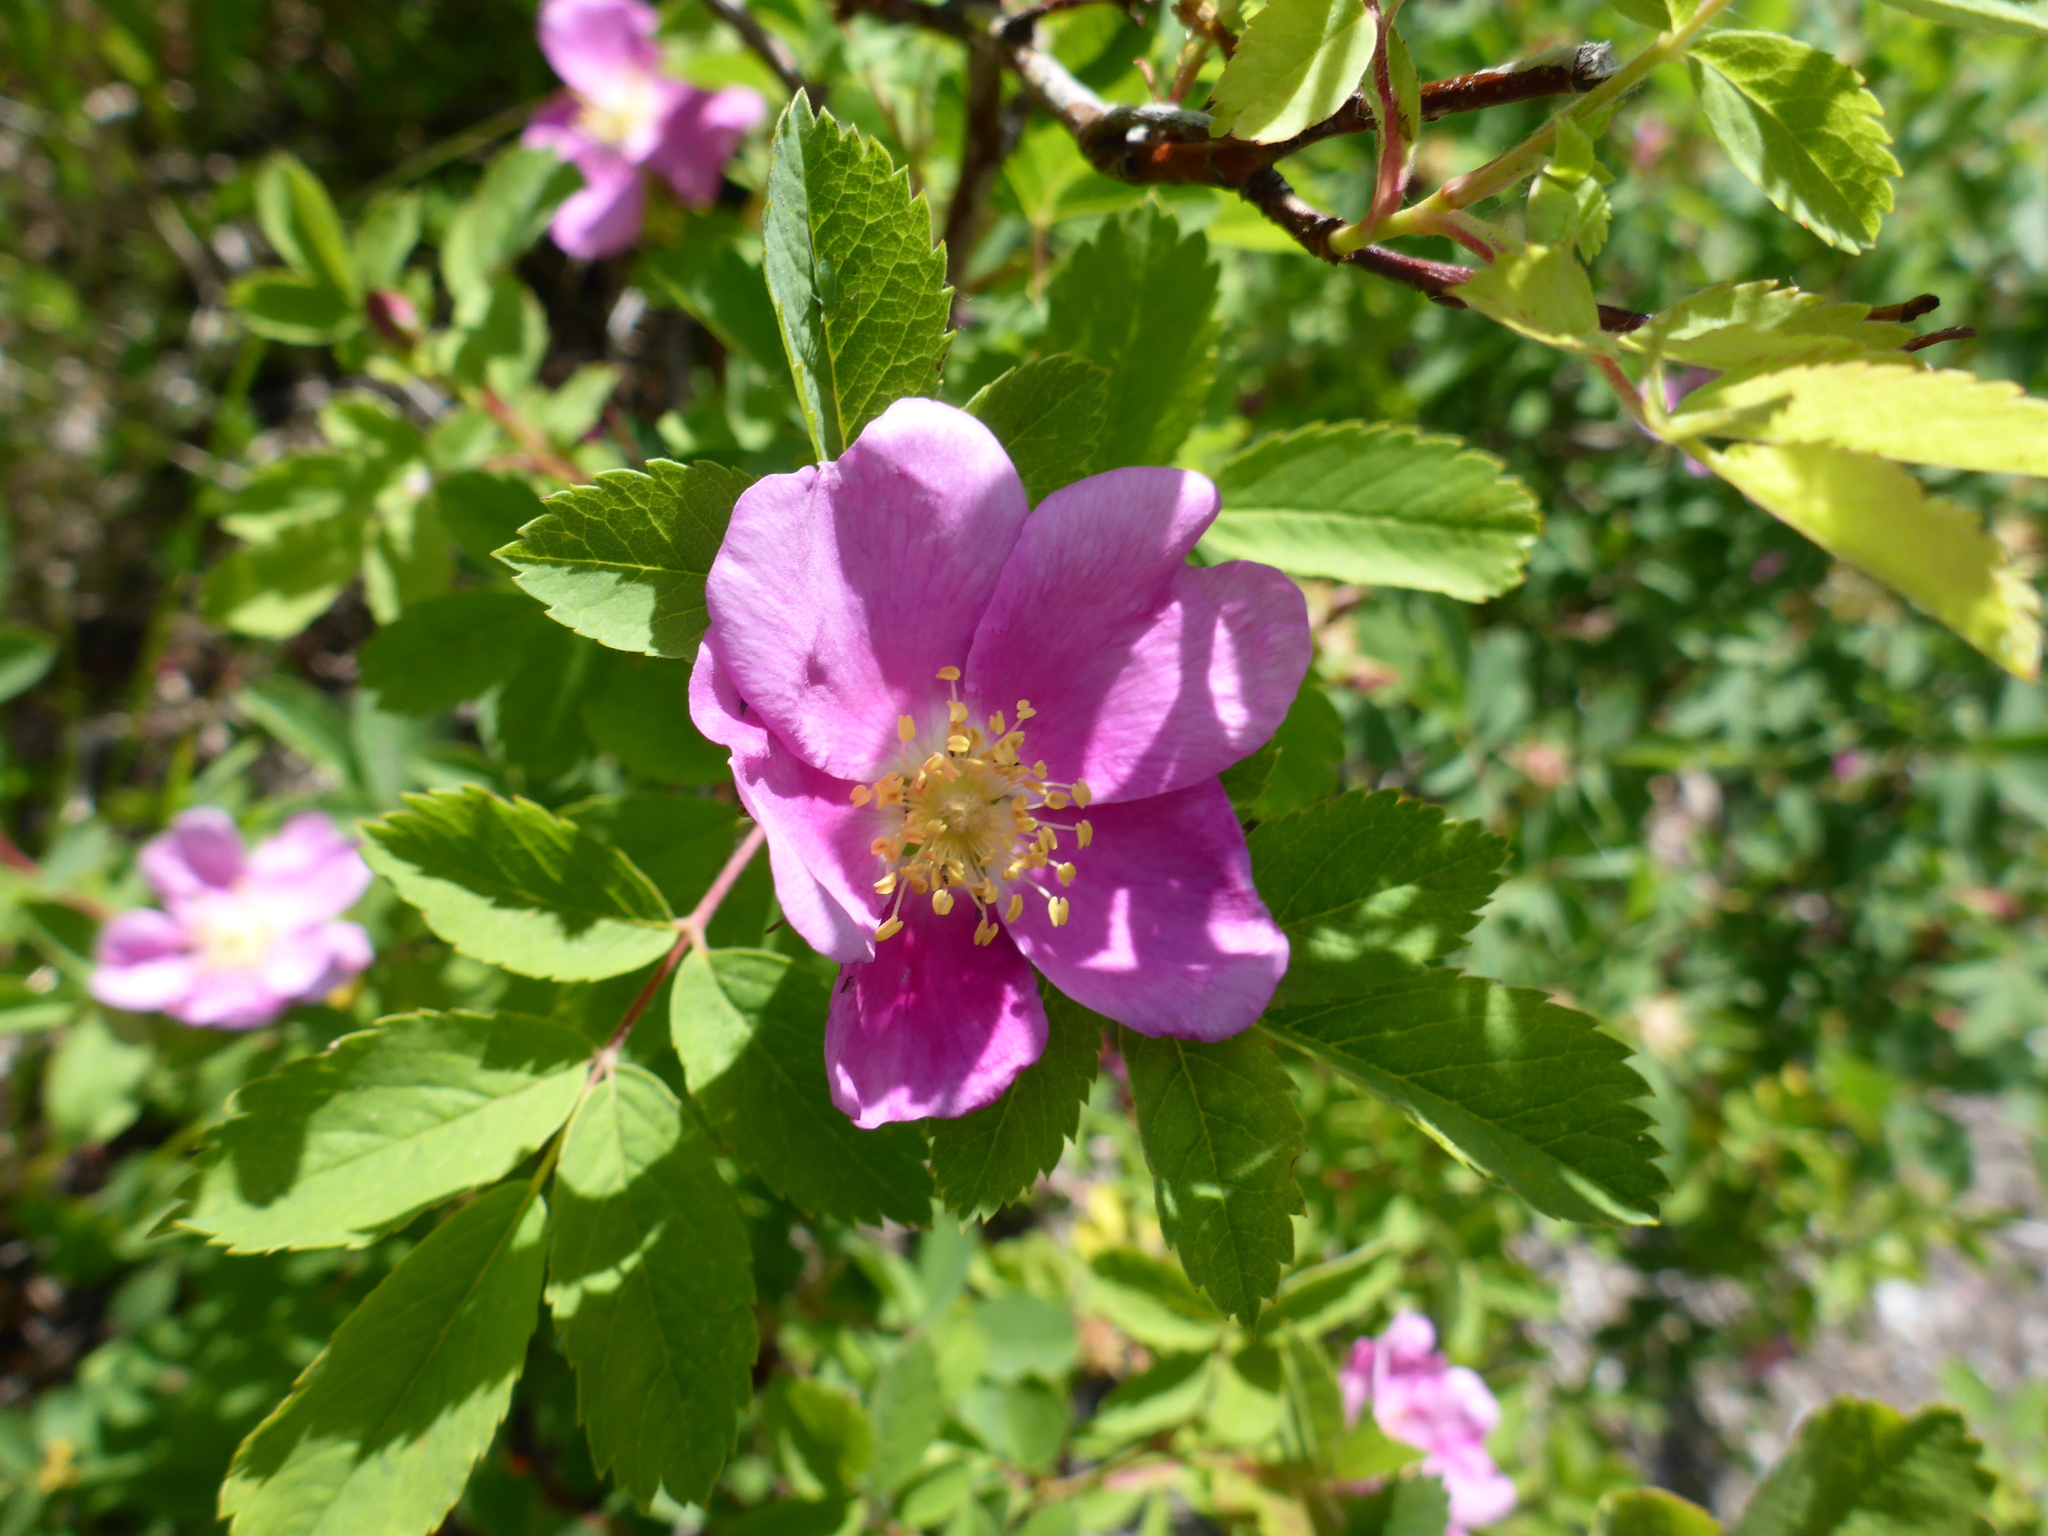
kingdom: Plantae
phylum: Tracheophyta
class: Magnoliopsida
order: Rosales
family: Rosaceae
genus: Rosa
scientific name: Rosa woodsii
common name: Woods's rose
